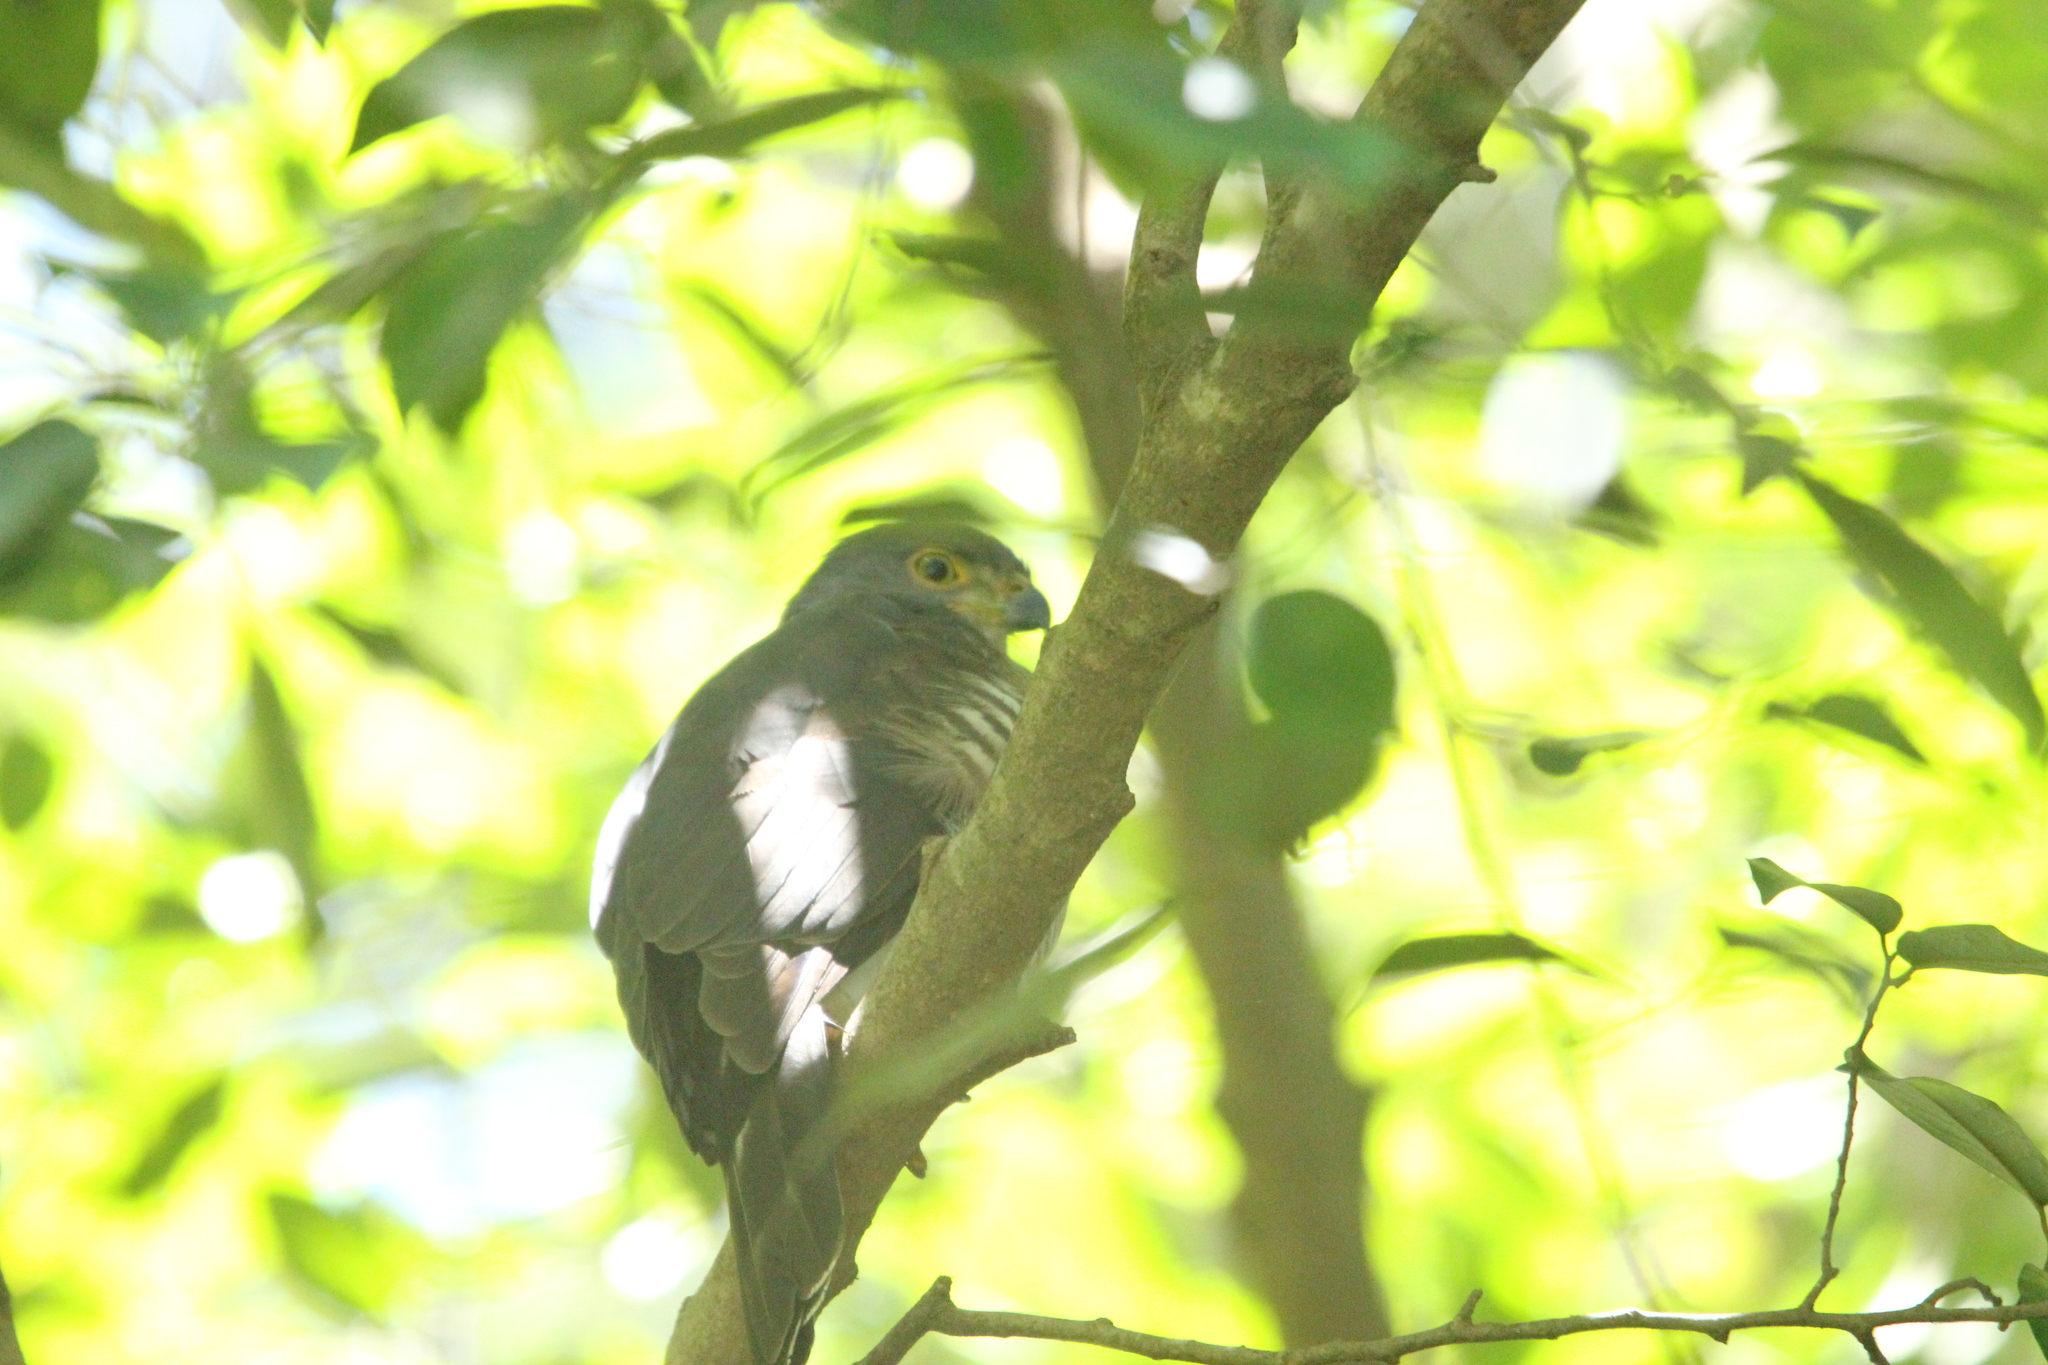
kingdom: Animalia
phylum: Chordata
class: Aves
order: Accipitriformes
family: Accipitridae
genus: Accipiter
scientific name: Accipiter tachiro
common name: African goshawk
